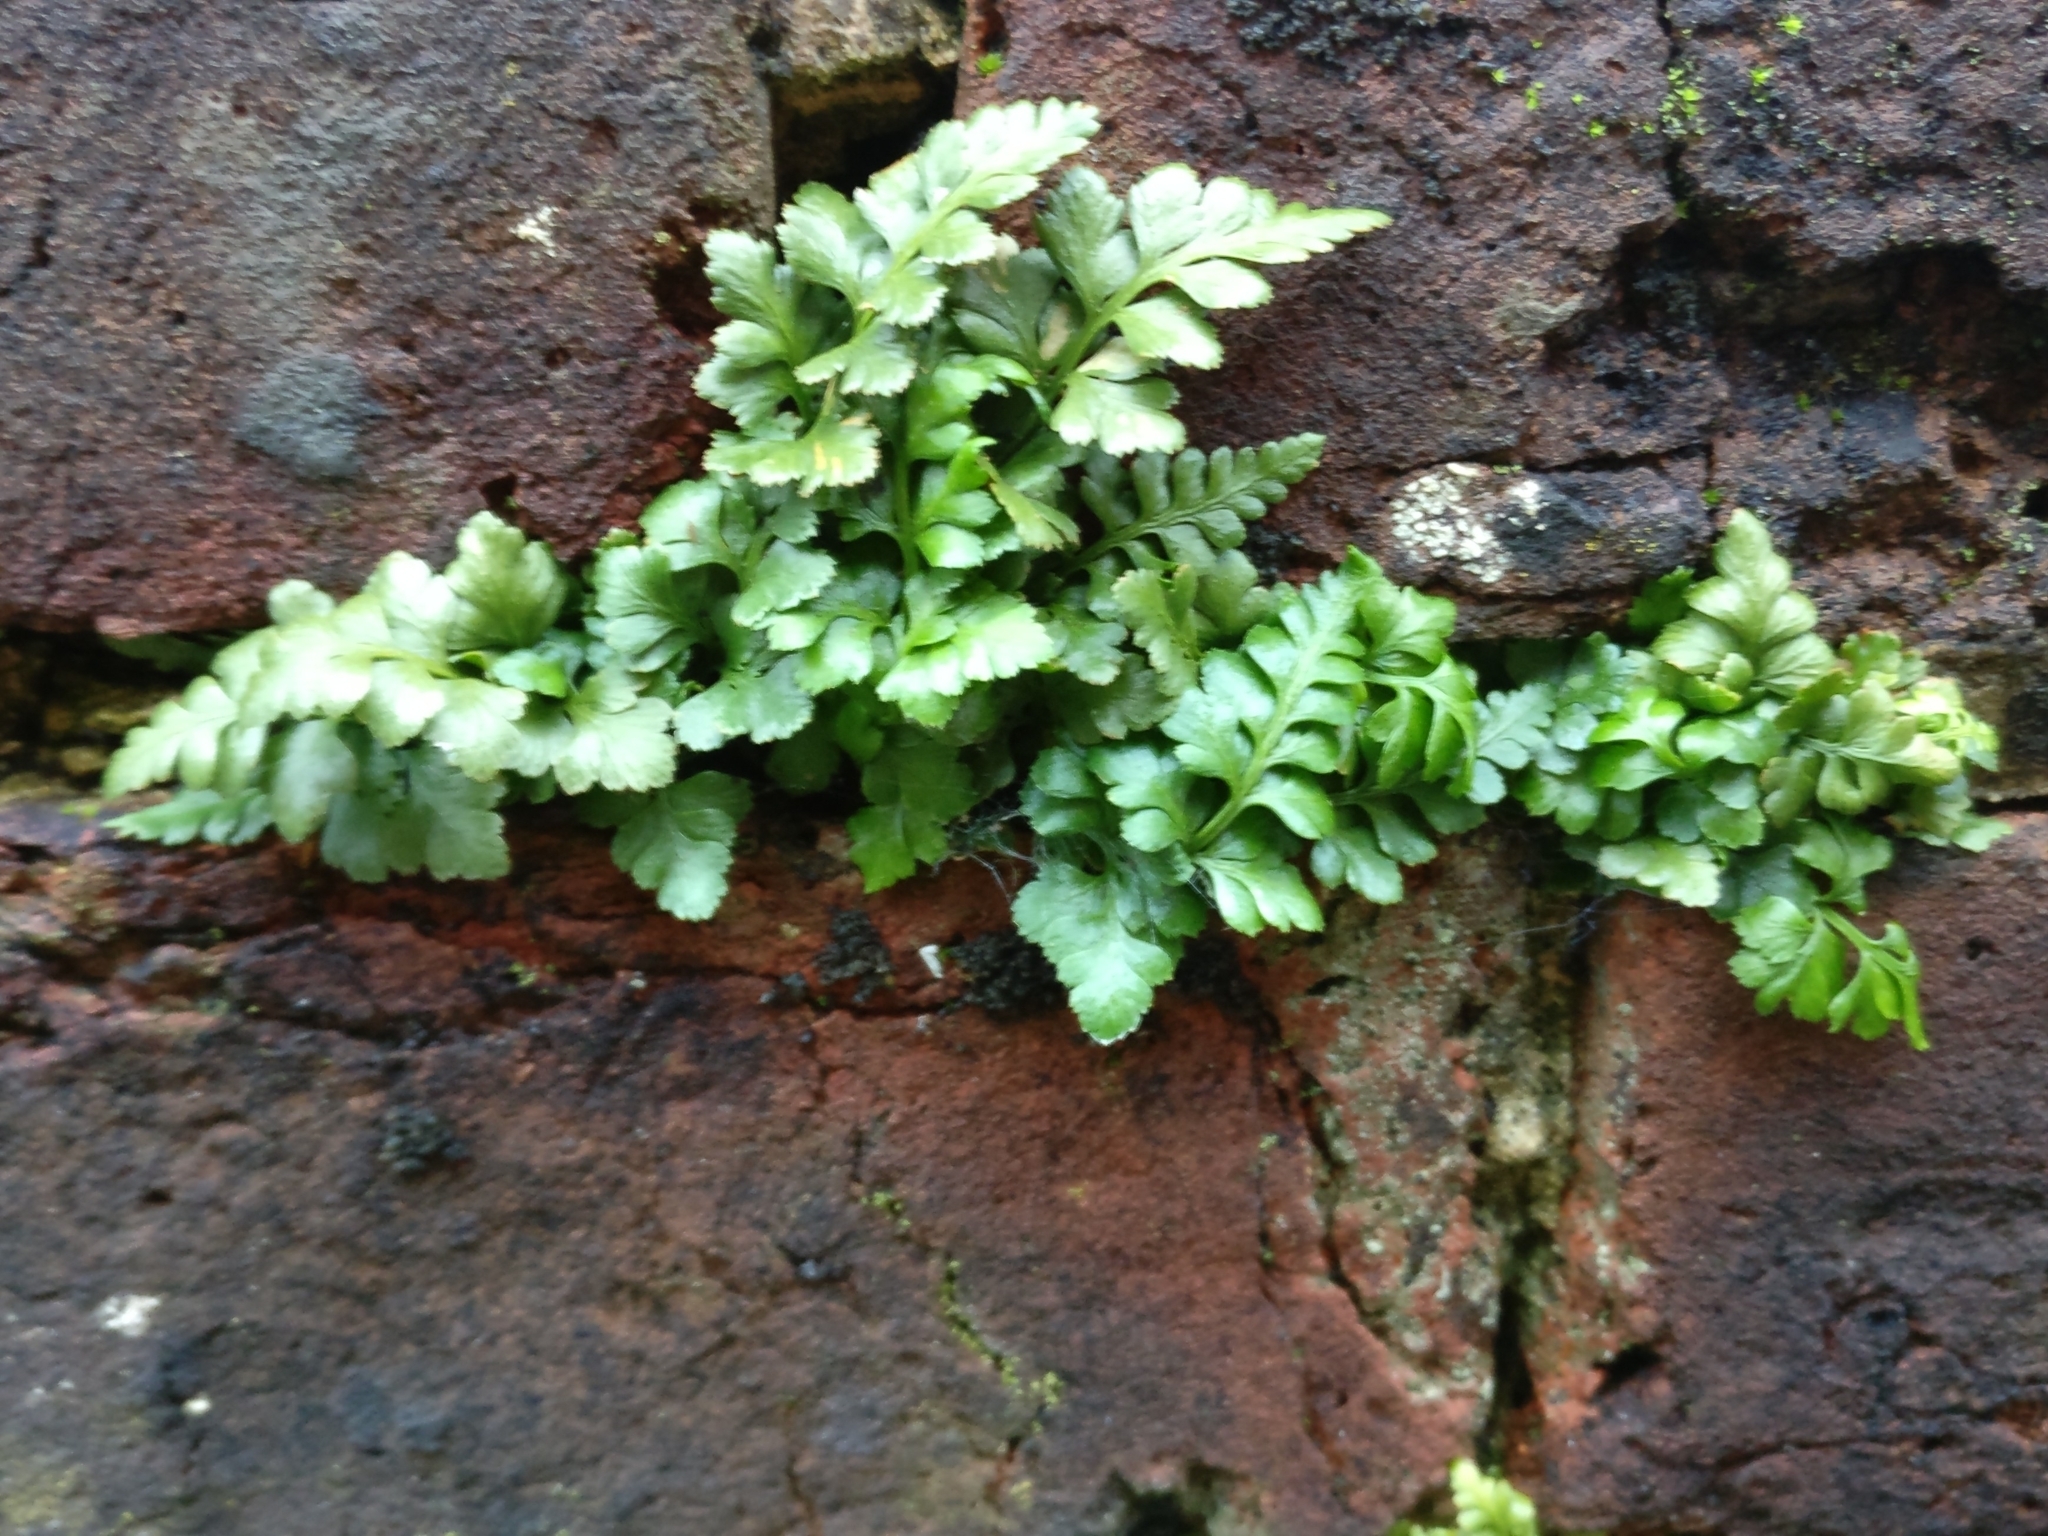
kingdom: Plantae
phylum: Tracheophyta
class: Polypodiopsida
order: Polypodiales
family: Aspleniaceae
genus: Asplenium
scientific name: Asplenium adiantum-nigrum
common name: Black spleenwort
